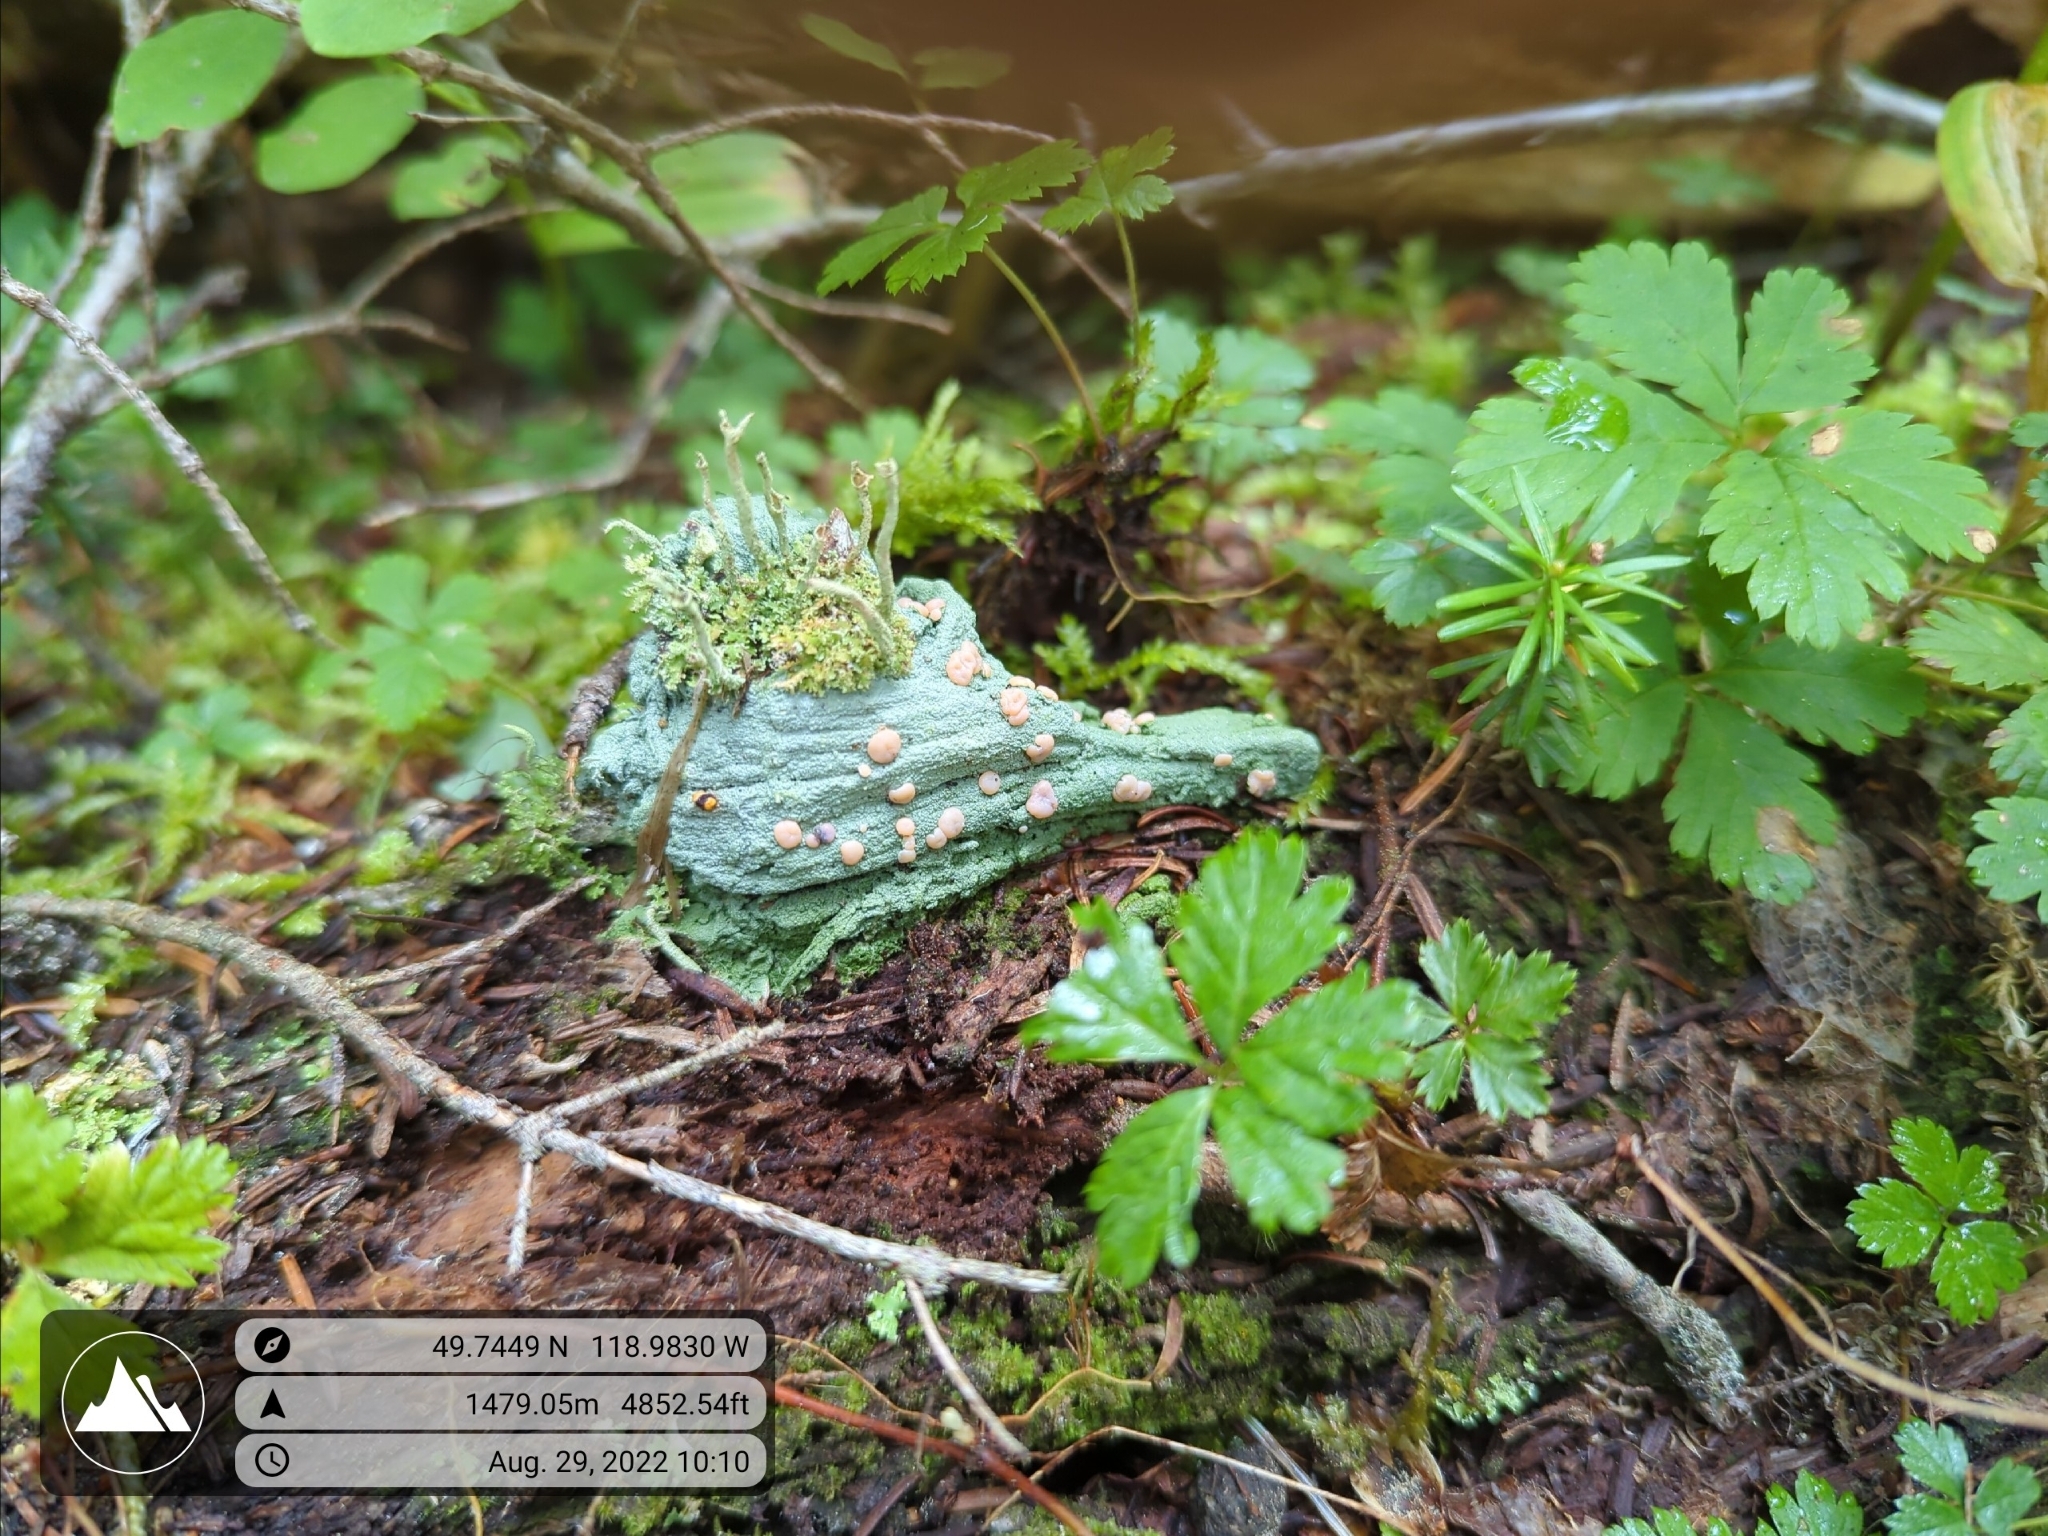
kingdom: Fungi
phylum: Ascomycota
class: Lecanoromycetes
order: Pertusariales
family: Icmadophilaceae
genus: Icmadophila
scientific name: Icmadophila ericetorum
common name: Candy lichen
